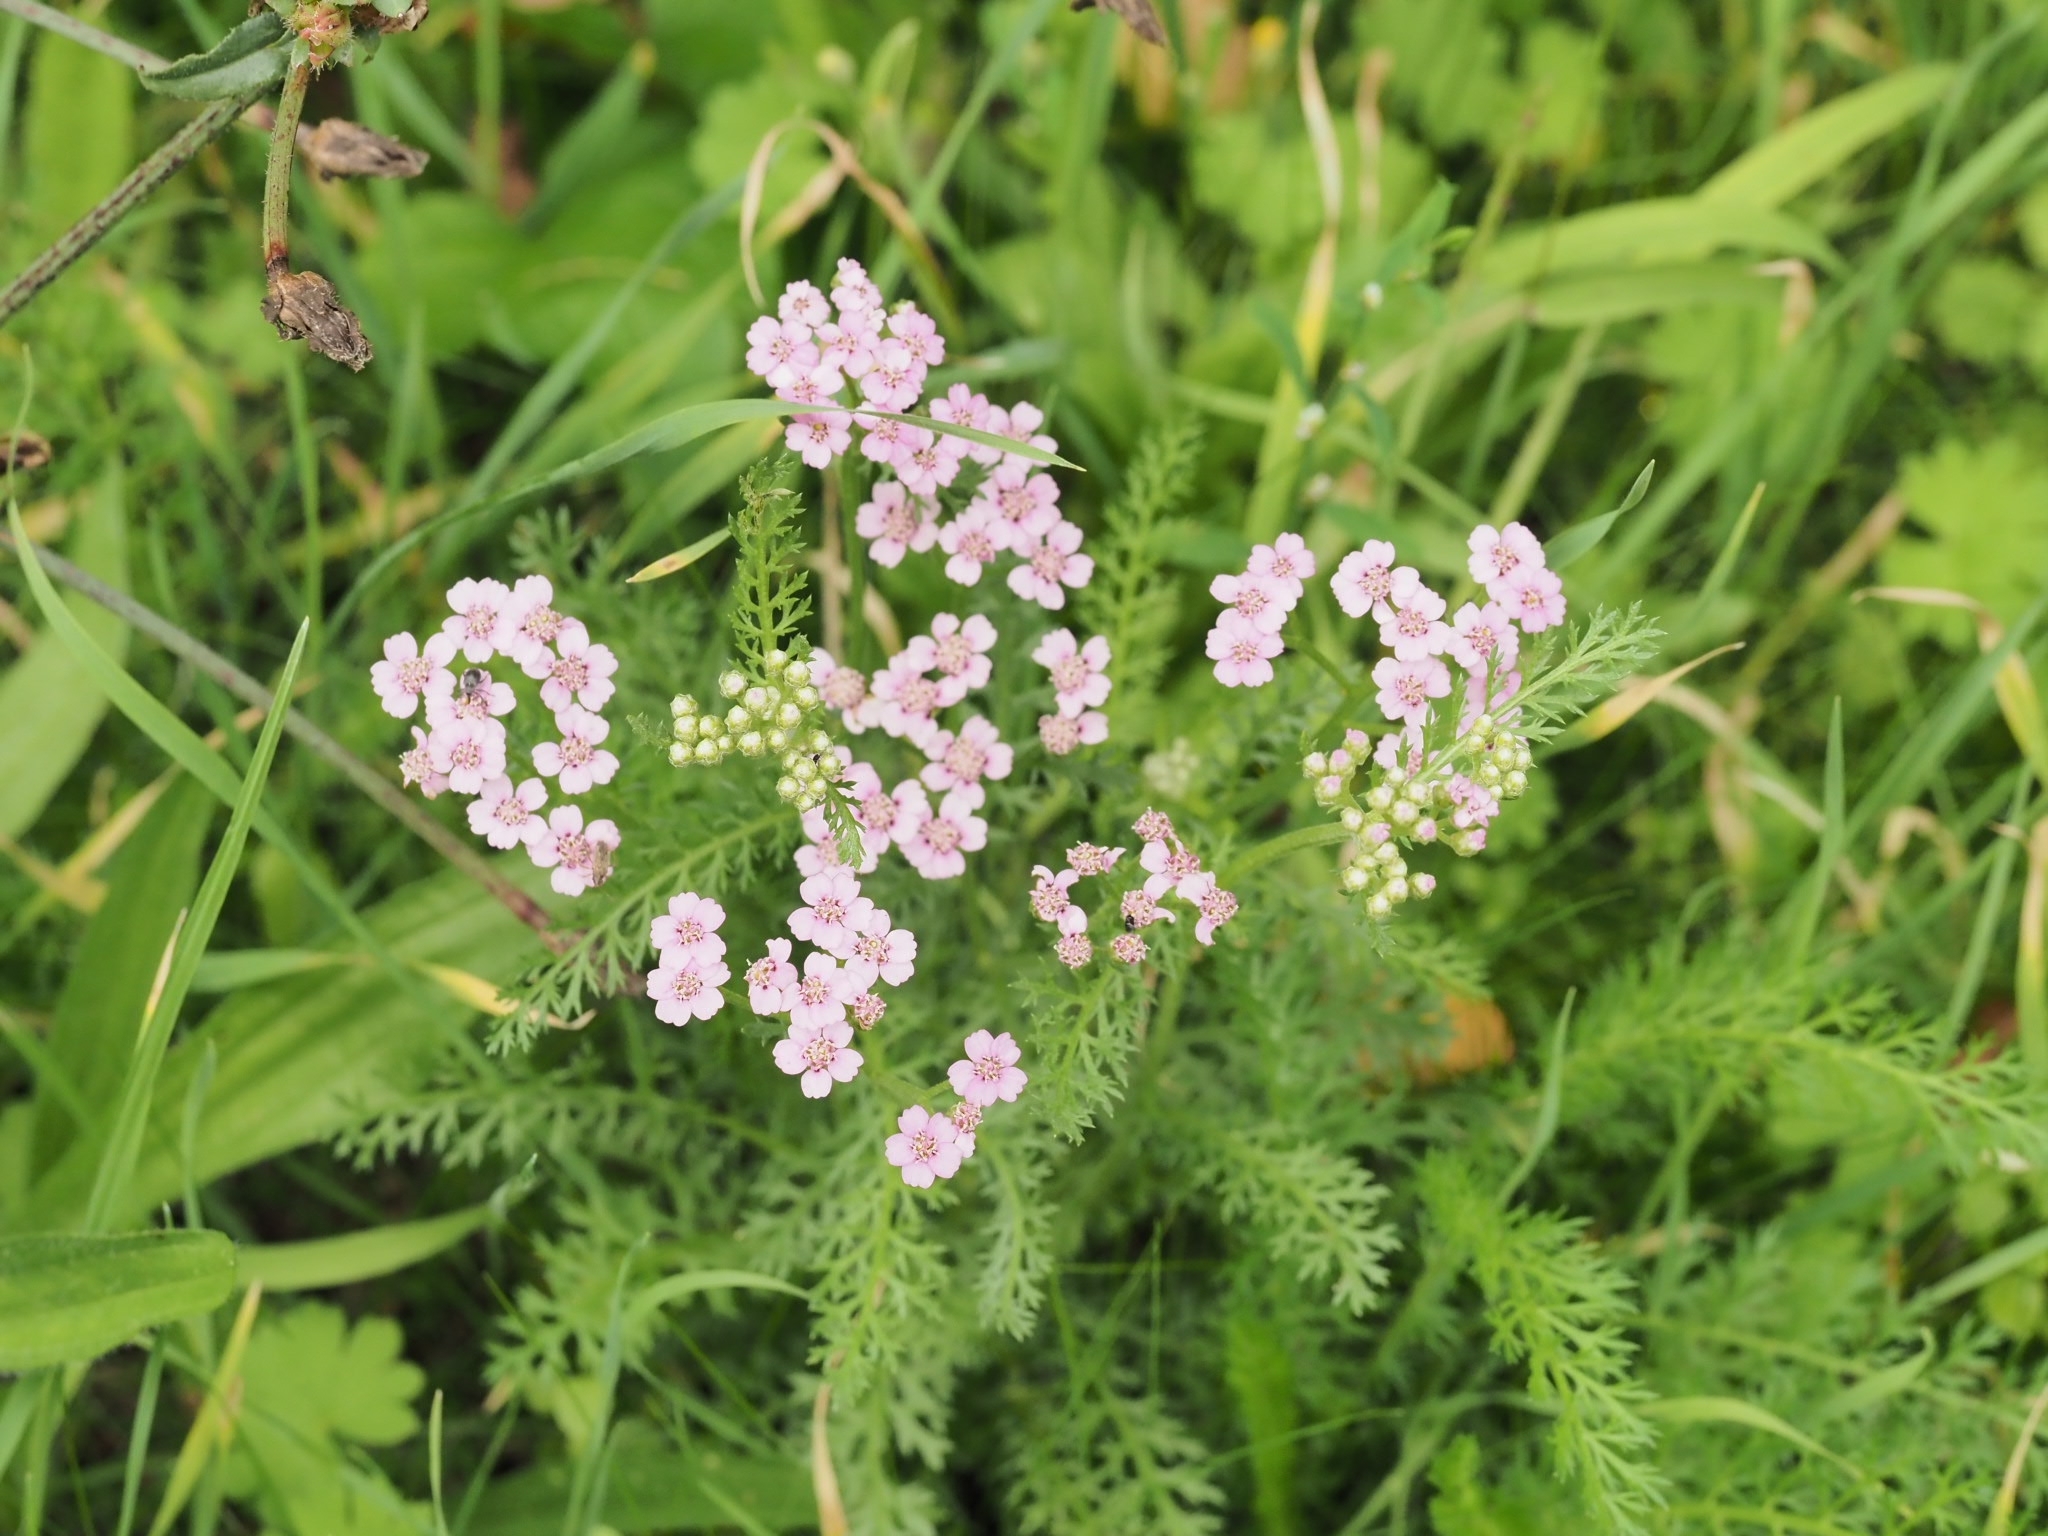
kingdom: Plantae
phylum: Tracheophyta
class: Magnoliopsida
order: Asterales
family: Asteraceae
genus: Achillea
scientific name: Achillea
